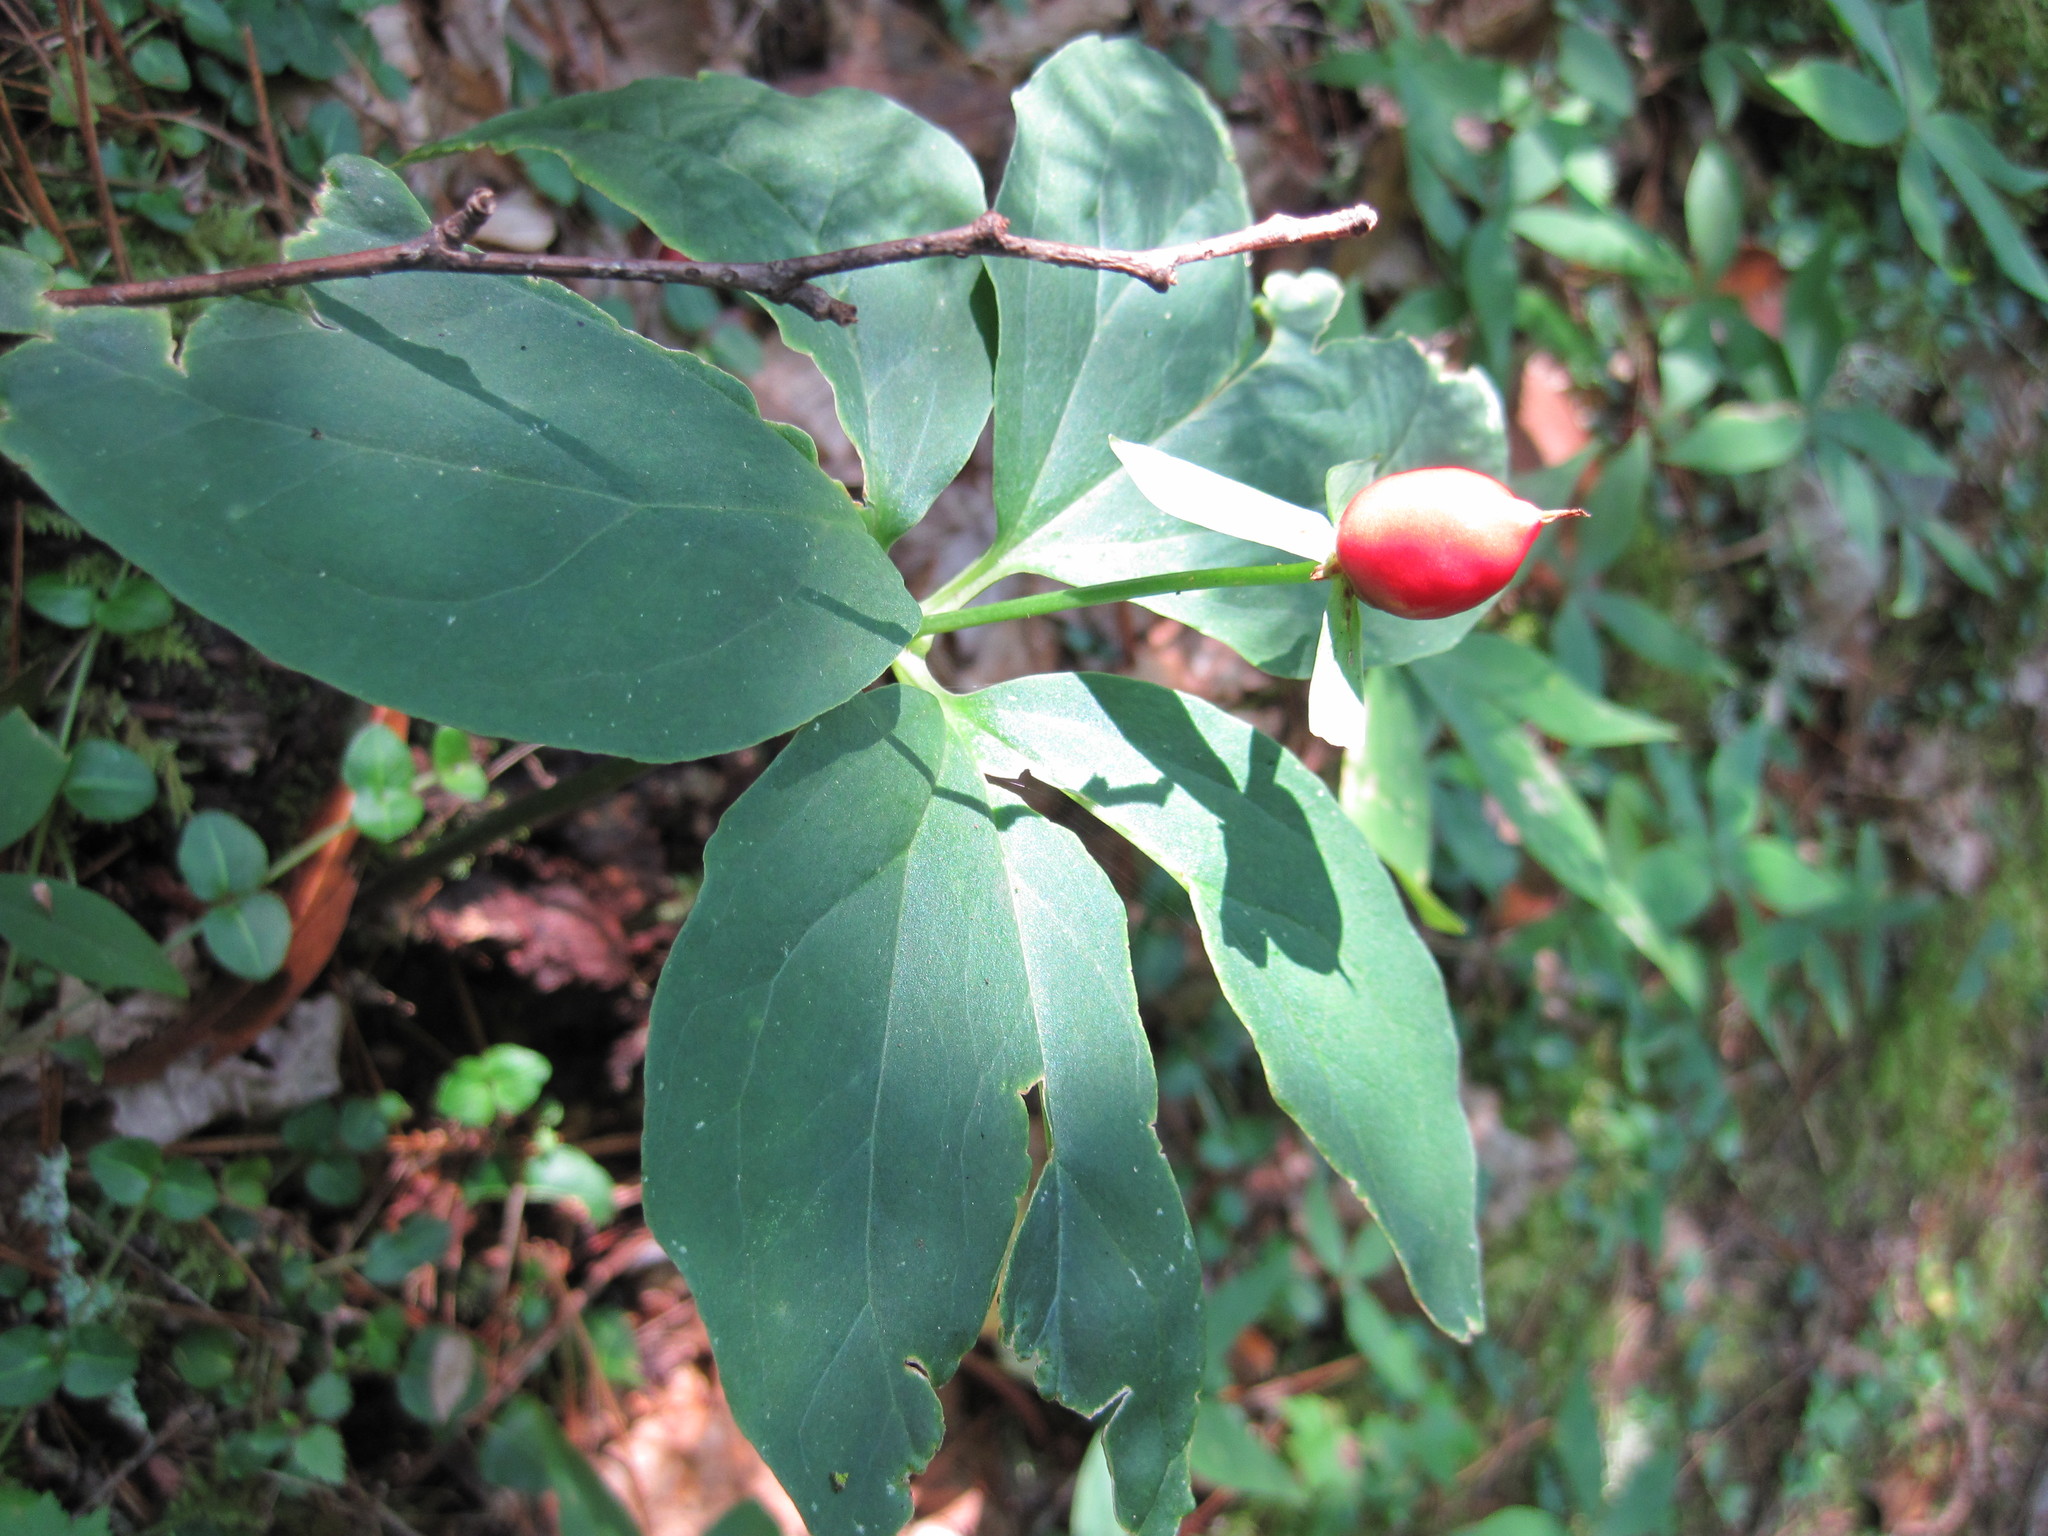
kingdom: Plantae
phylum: Tracheophyta
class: Liliopsida
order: Liliales
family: Melanthiaceae
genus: Trillium
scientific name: Trillium undulatum
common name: Paint trillium
